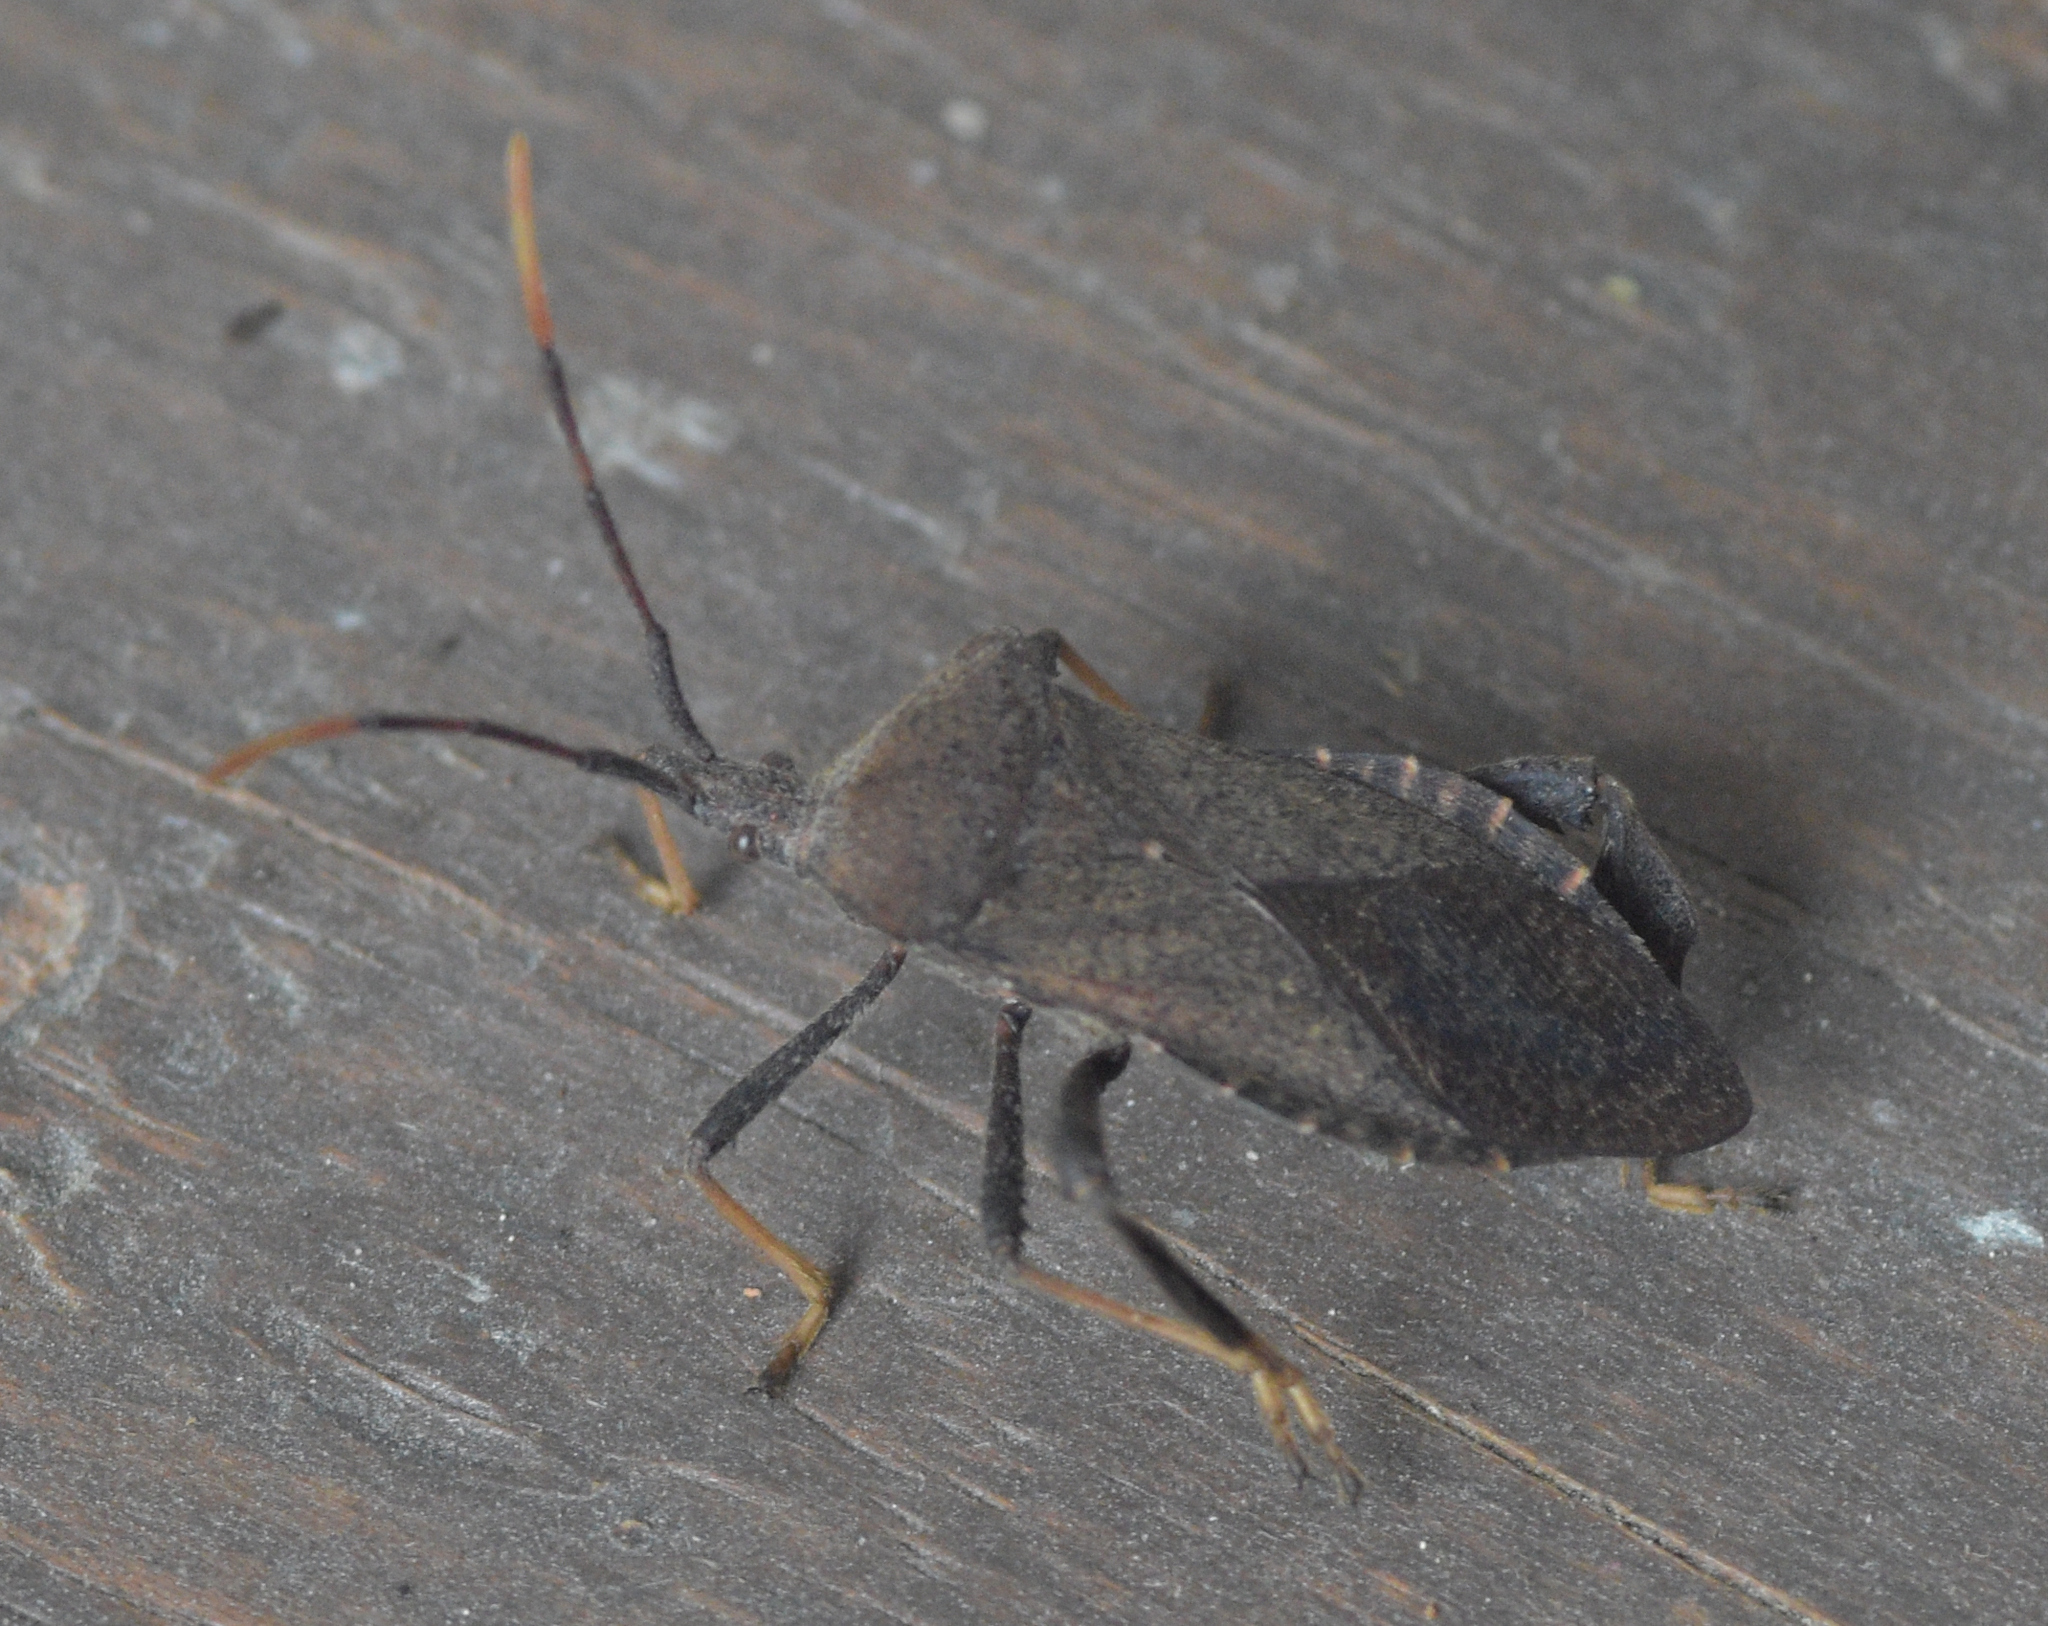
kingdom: Animalia
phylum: Arthropoda
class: Insecta
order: Hemiptera
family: Coreidae
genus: Acanthocephala
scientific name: Acanthocephala terminalis
